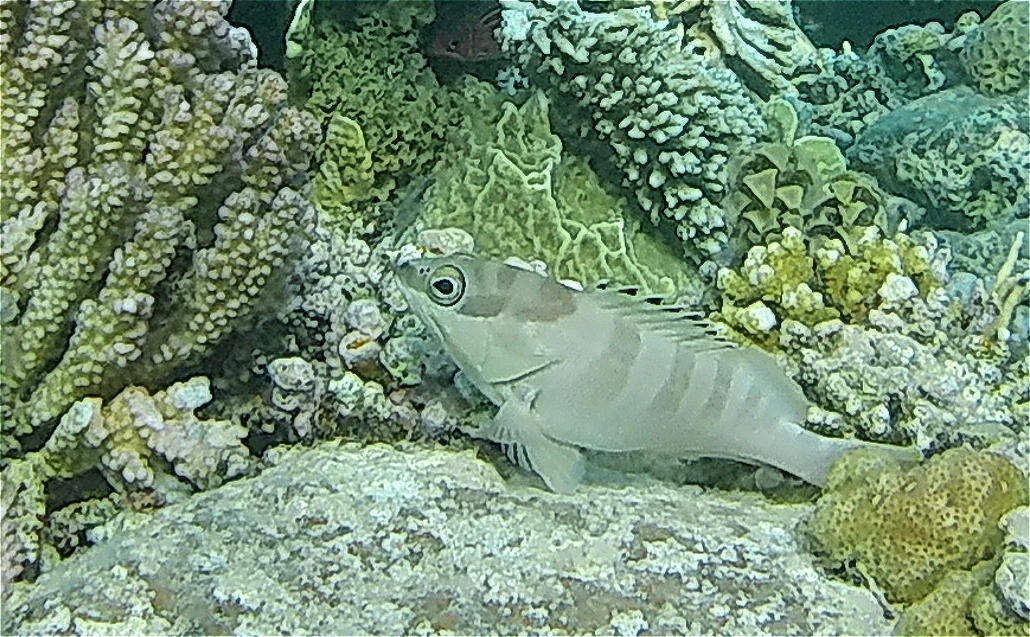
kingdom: Animalia
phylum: Chordata
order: Perciformes
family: Serranidae
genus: Epinephelus
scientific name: Epinephelus fasciatus
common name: Blacktip grouper
